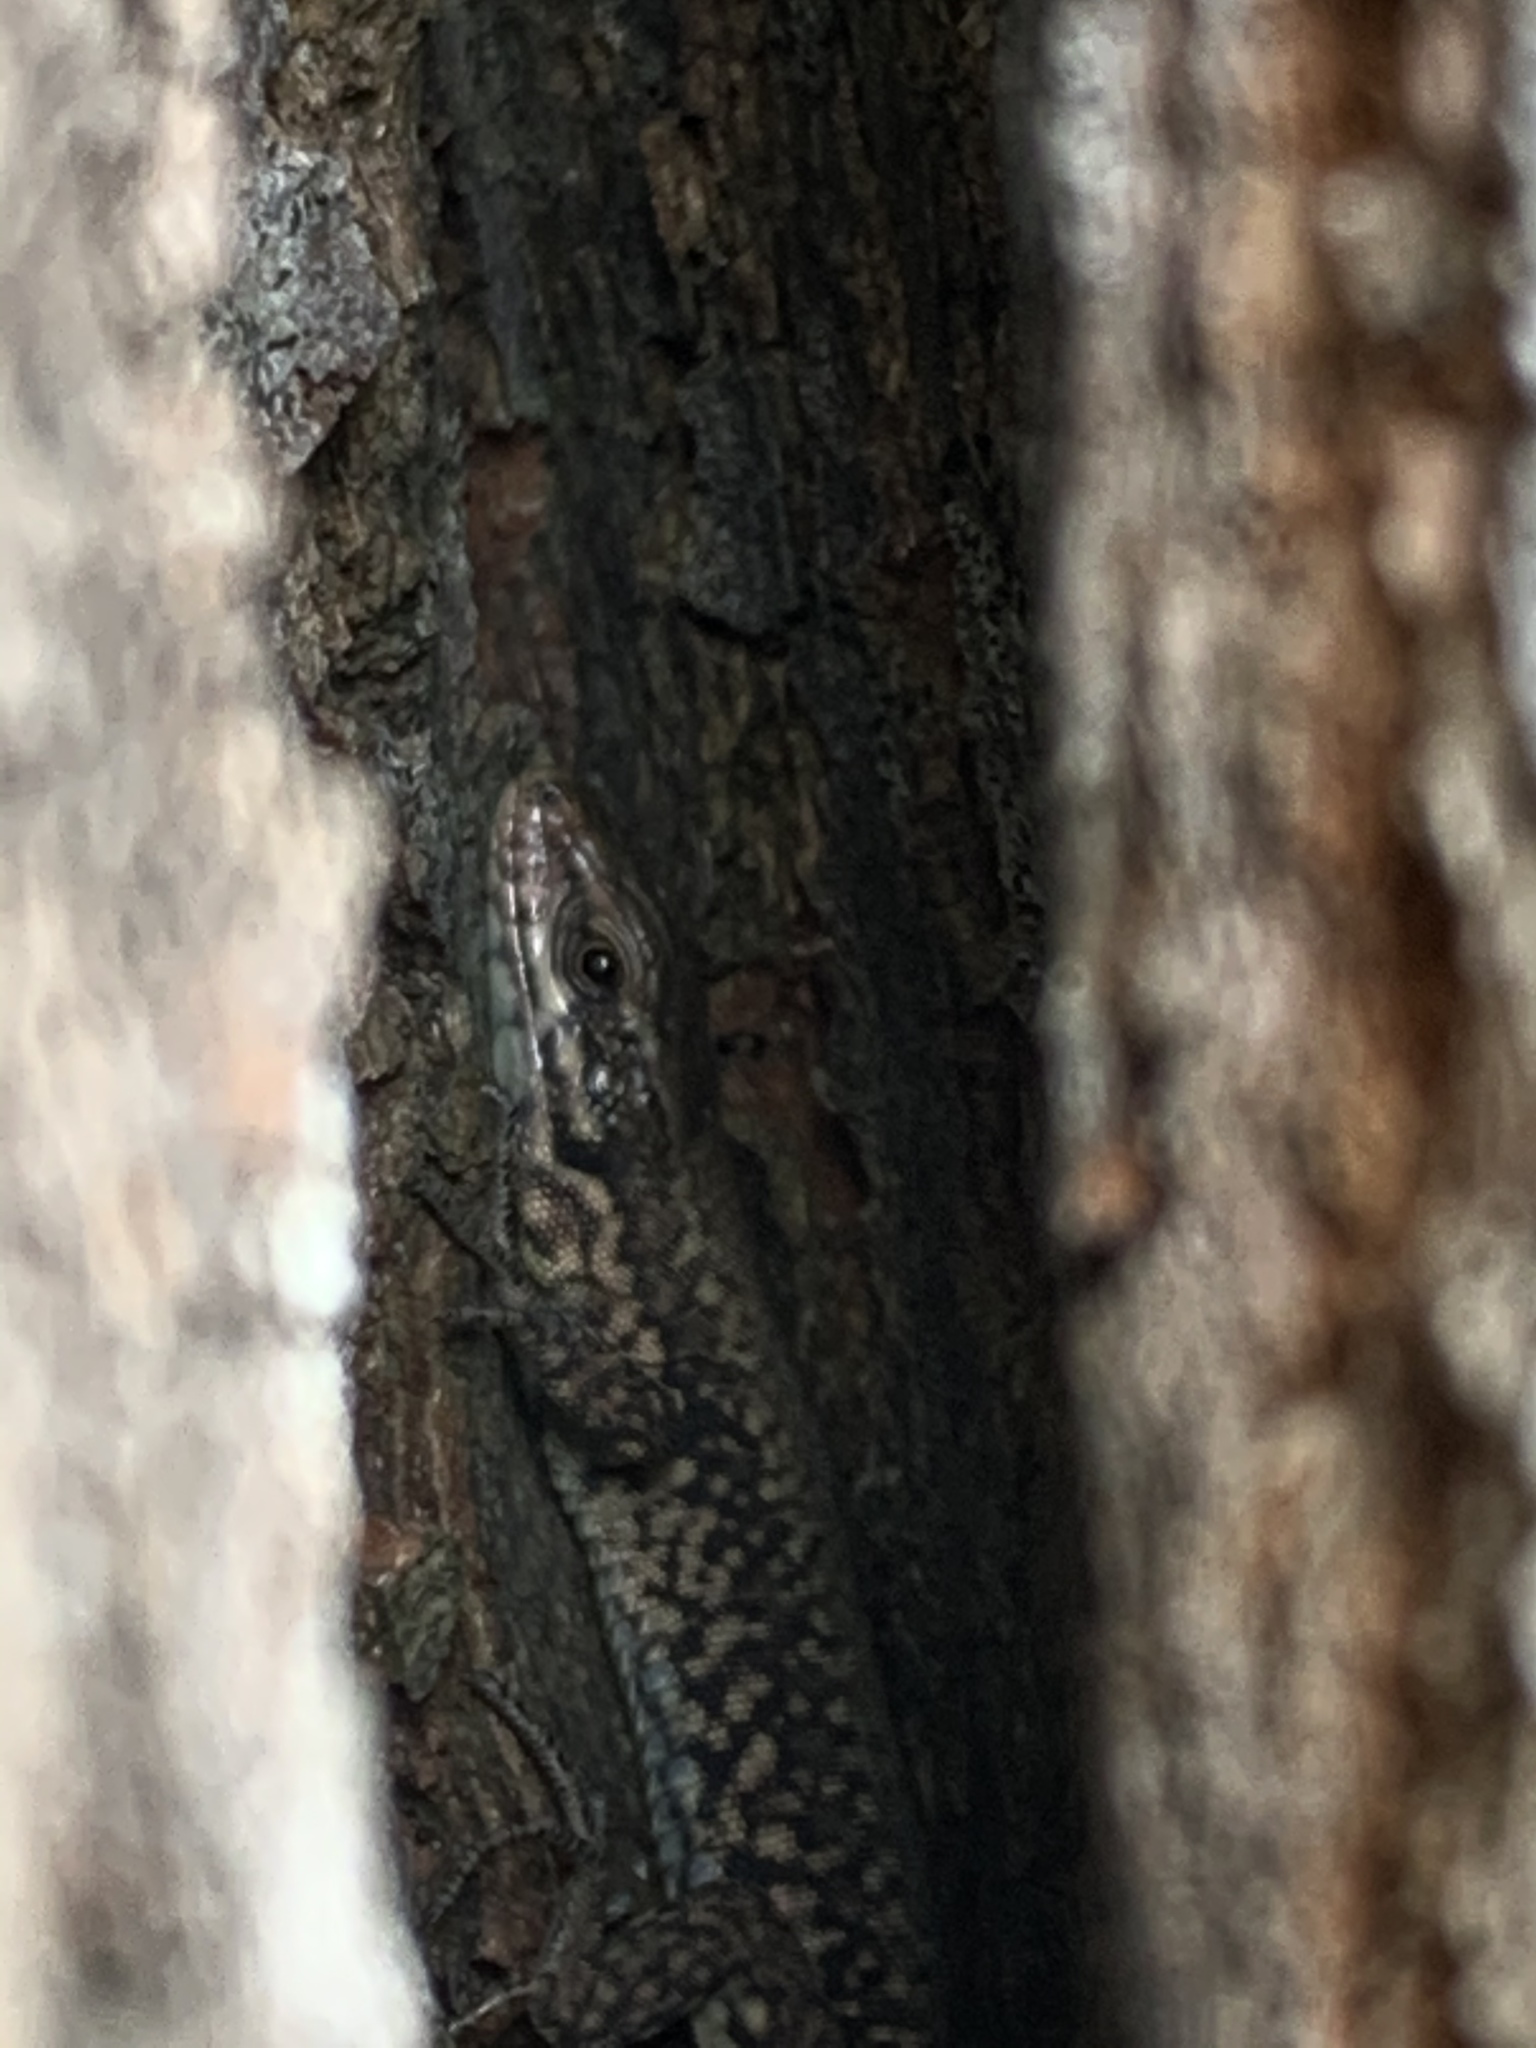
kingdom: Animalia
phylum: Chordata
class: Squamata
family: Lacertidae
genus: Podarcis
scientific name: Podarcis muralis
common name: Common wall lizard
